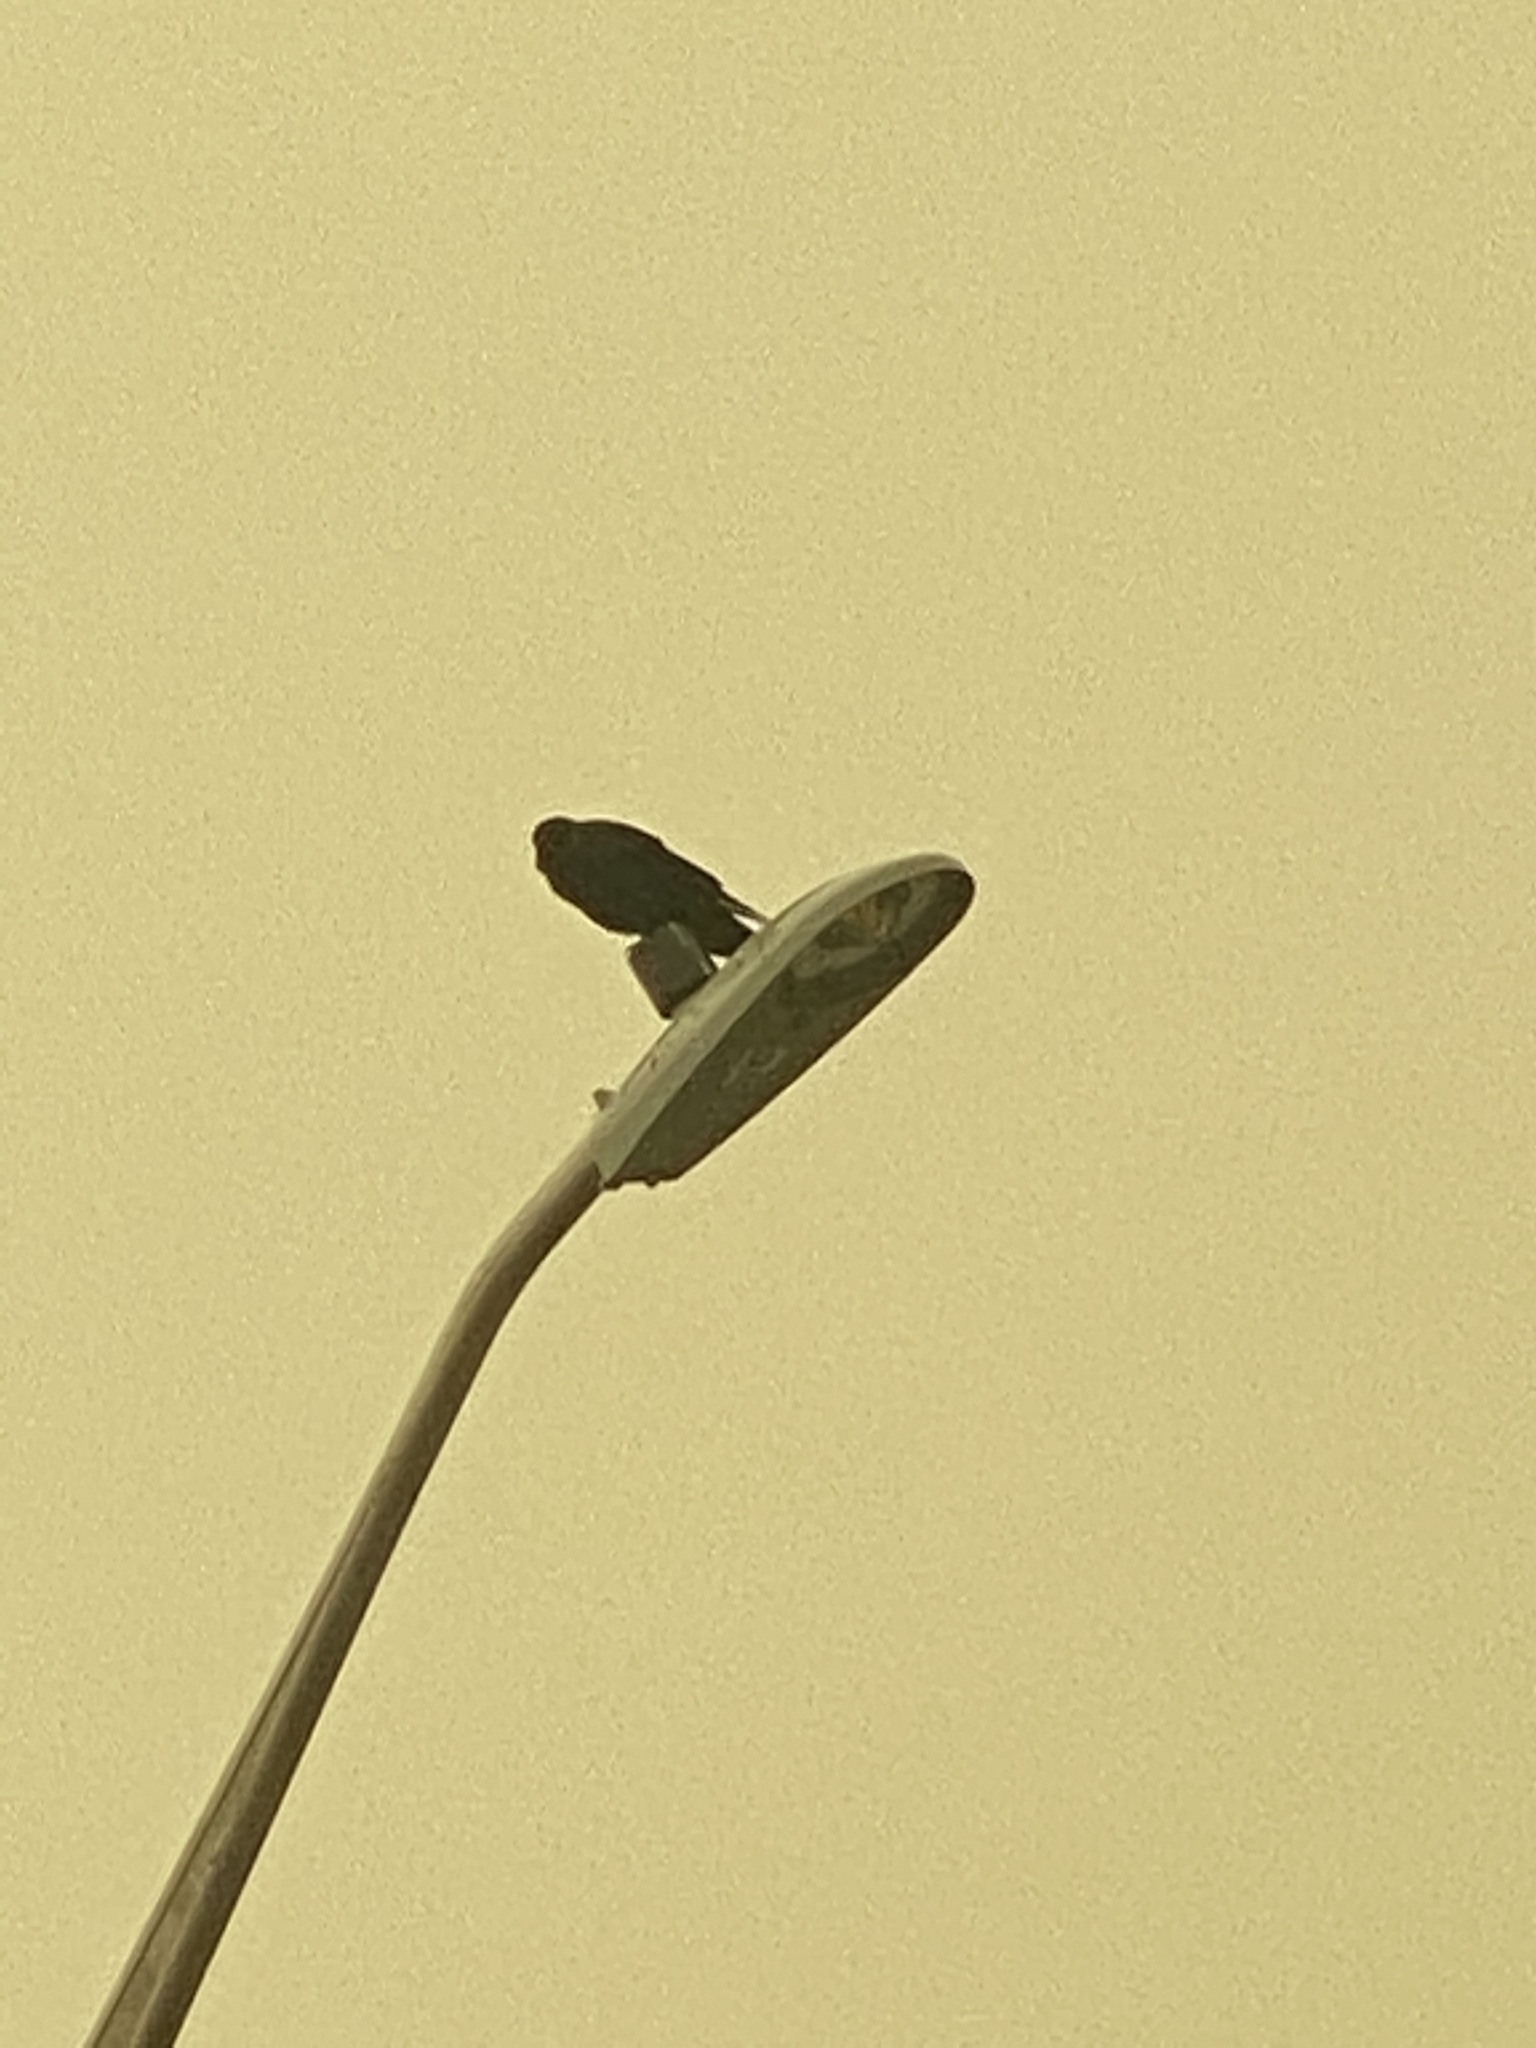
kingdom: Animalia
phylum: Chordata
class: Aves
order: Passeriformes
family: Corvidae
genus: Corvus
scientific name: Corvus brachyrhynchos
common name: American crow
